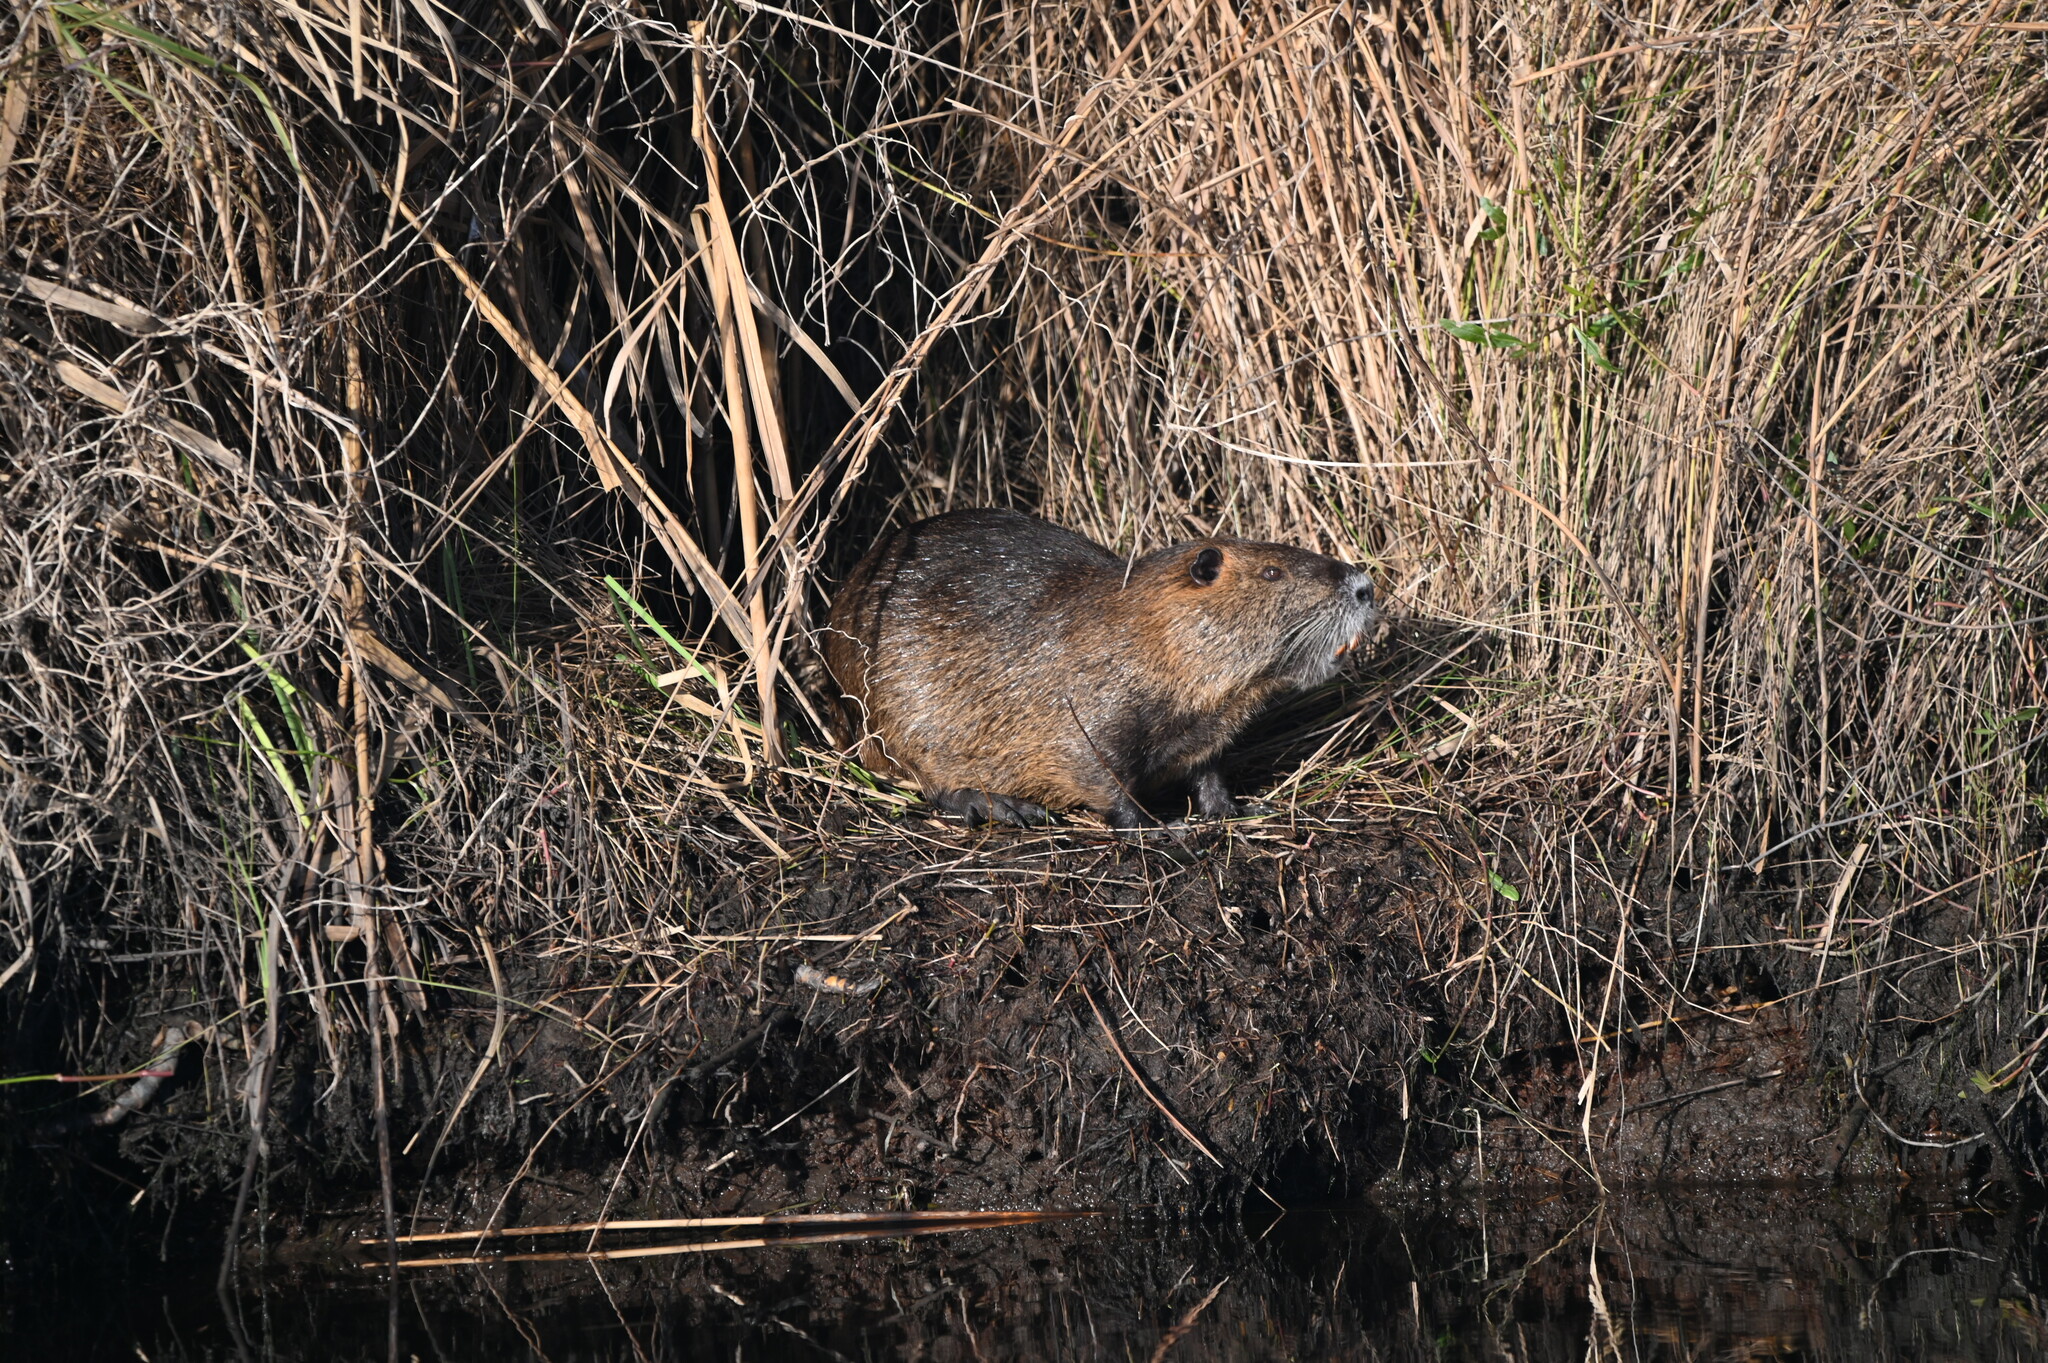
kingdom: Animalia
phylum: Chordata
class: Mammalia
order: Rodentia
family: Myocastoridae
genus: Myocastor
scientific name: Myocastor coypus
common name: Coypu
